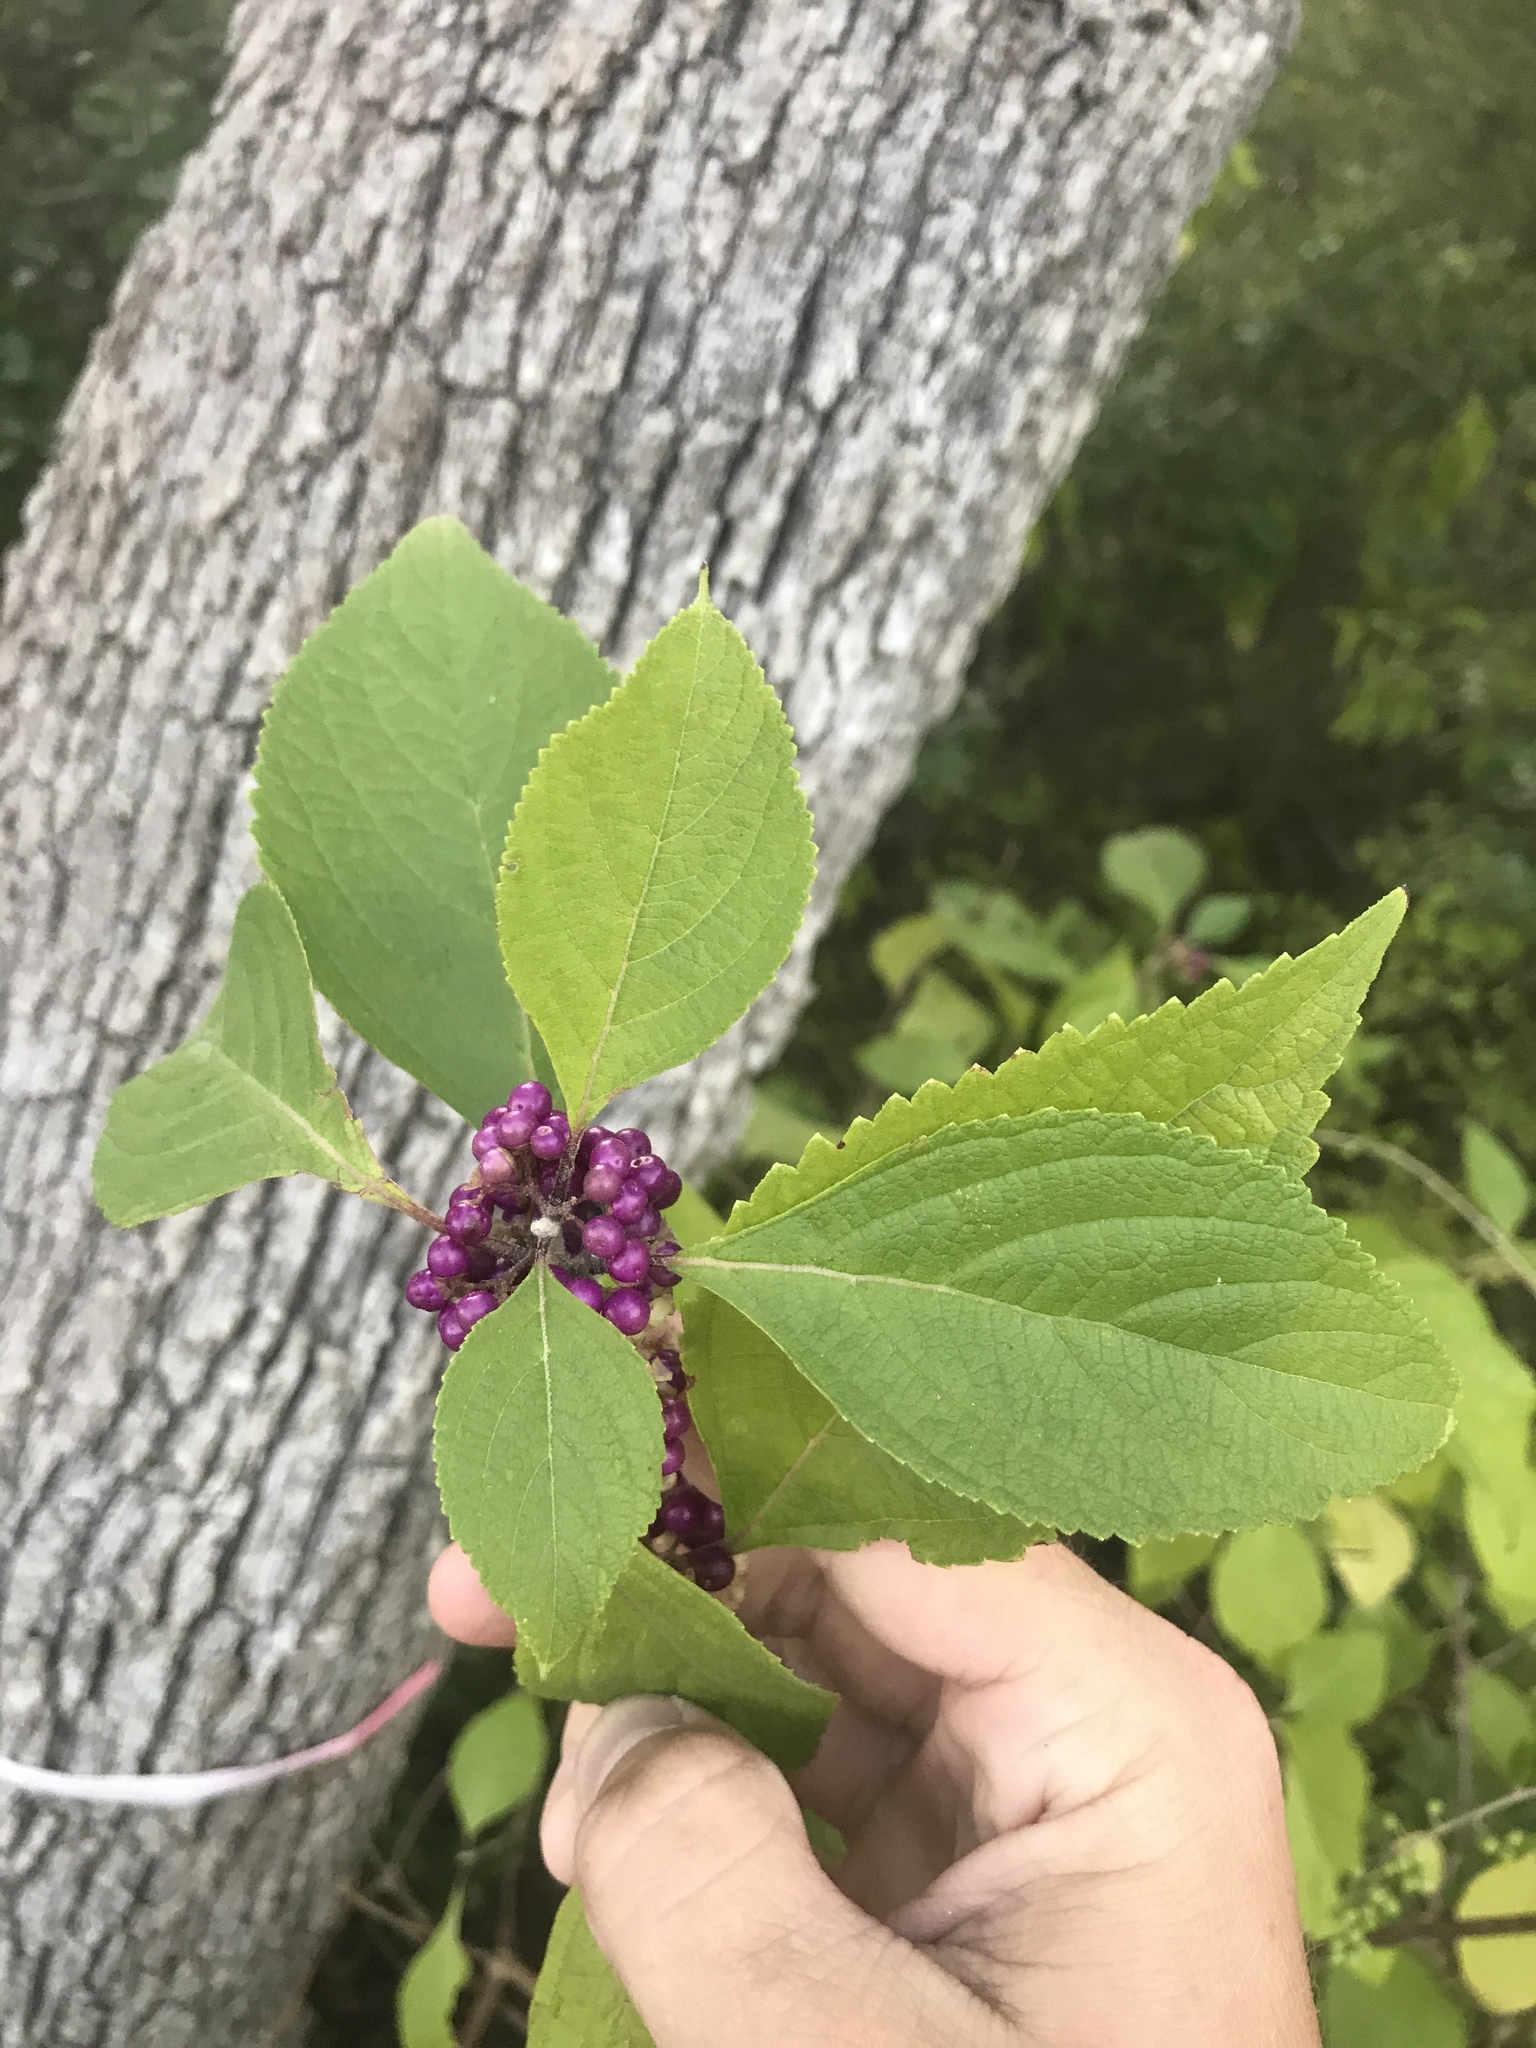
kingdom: Plantae
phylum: Tracheophyta
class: Magnoliopsida
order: Lamiales
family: Lamiaceae
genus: Callicarpa
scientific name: Callicarpa americana
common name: American beautyberry
